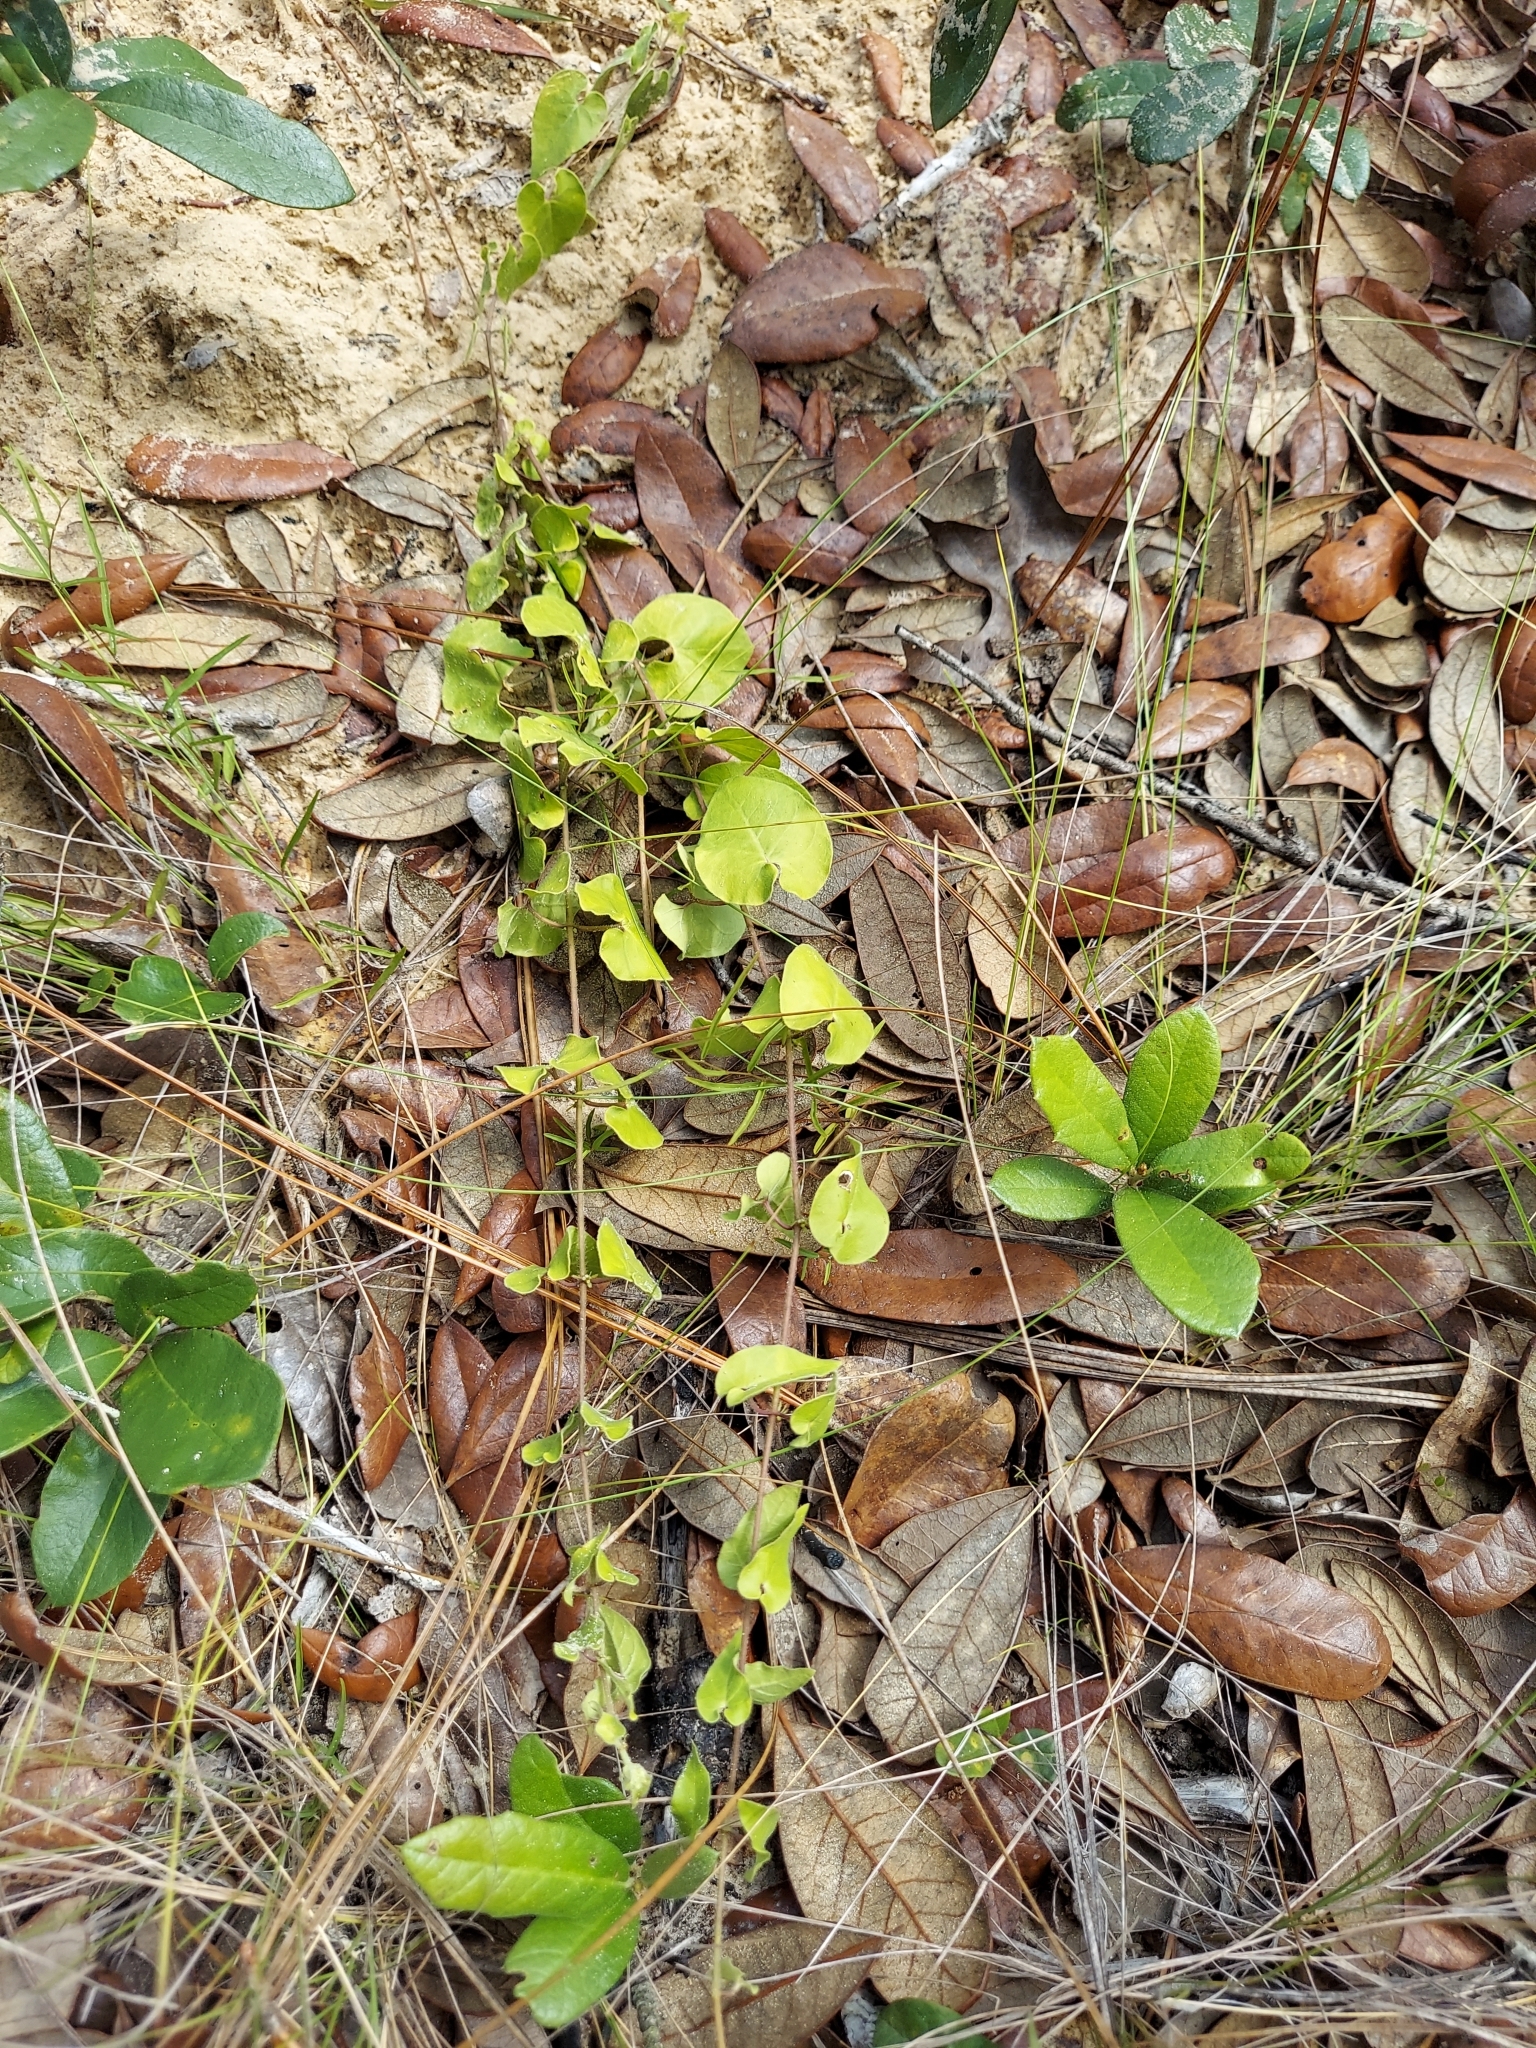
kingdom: Plantae
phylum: Tracheophyta
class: Magnoliopsida
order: Gentianales
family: Apocynaceae
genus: Chthamalia
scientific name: Chthamalia pubiflora
